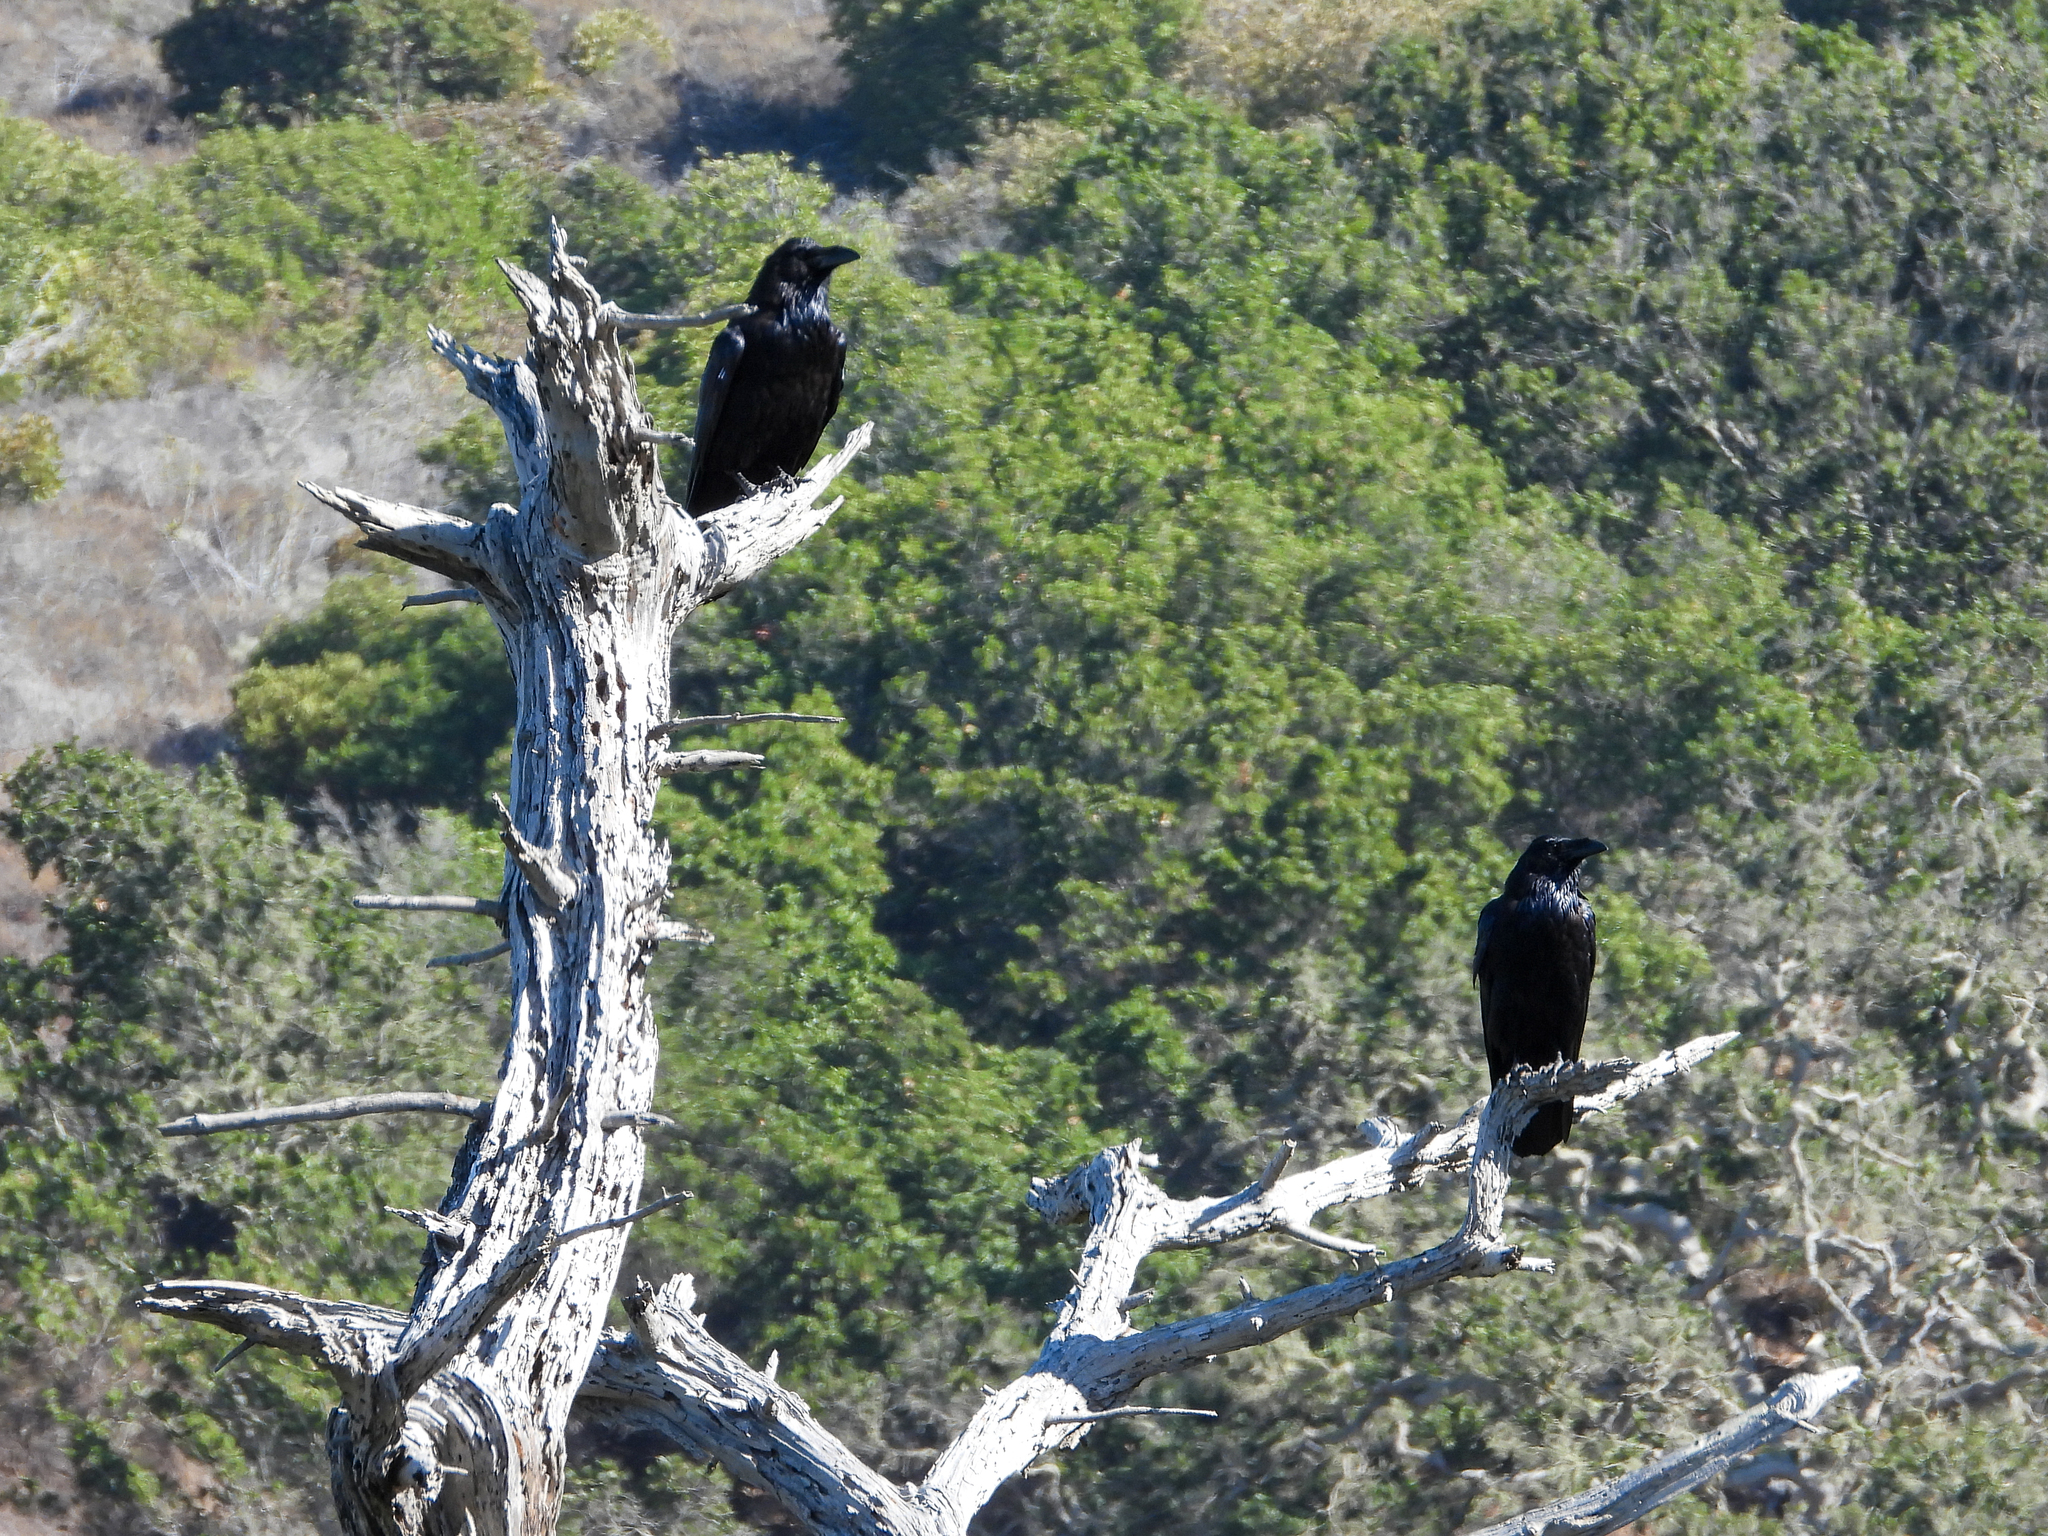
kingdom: Animalia
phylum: Chordata
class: Aves
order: Passeriformes
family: Corvidae
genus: Corvus
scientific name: Corvus corax
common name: Common raven
